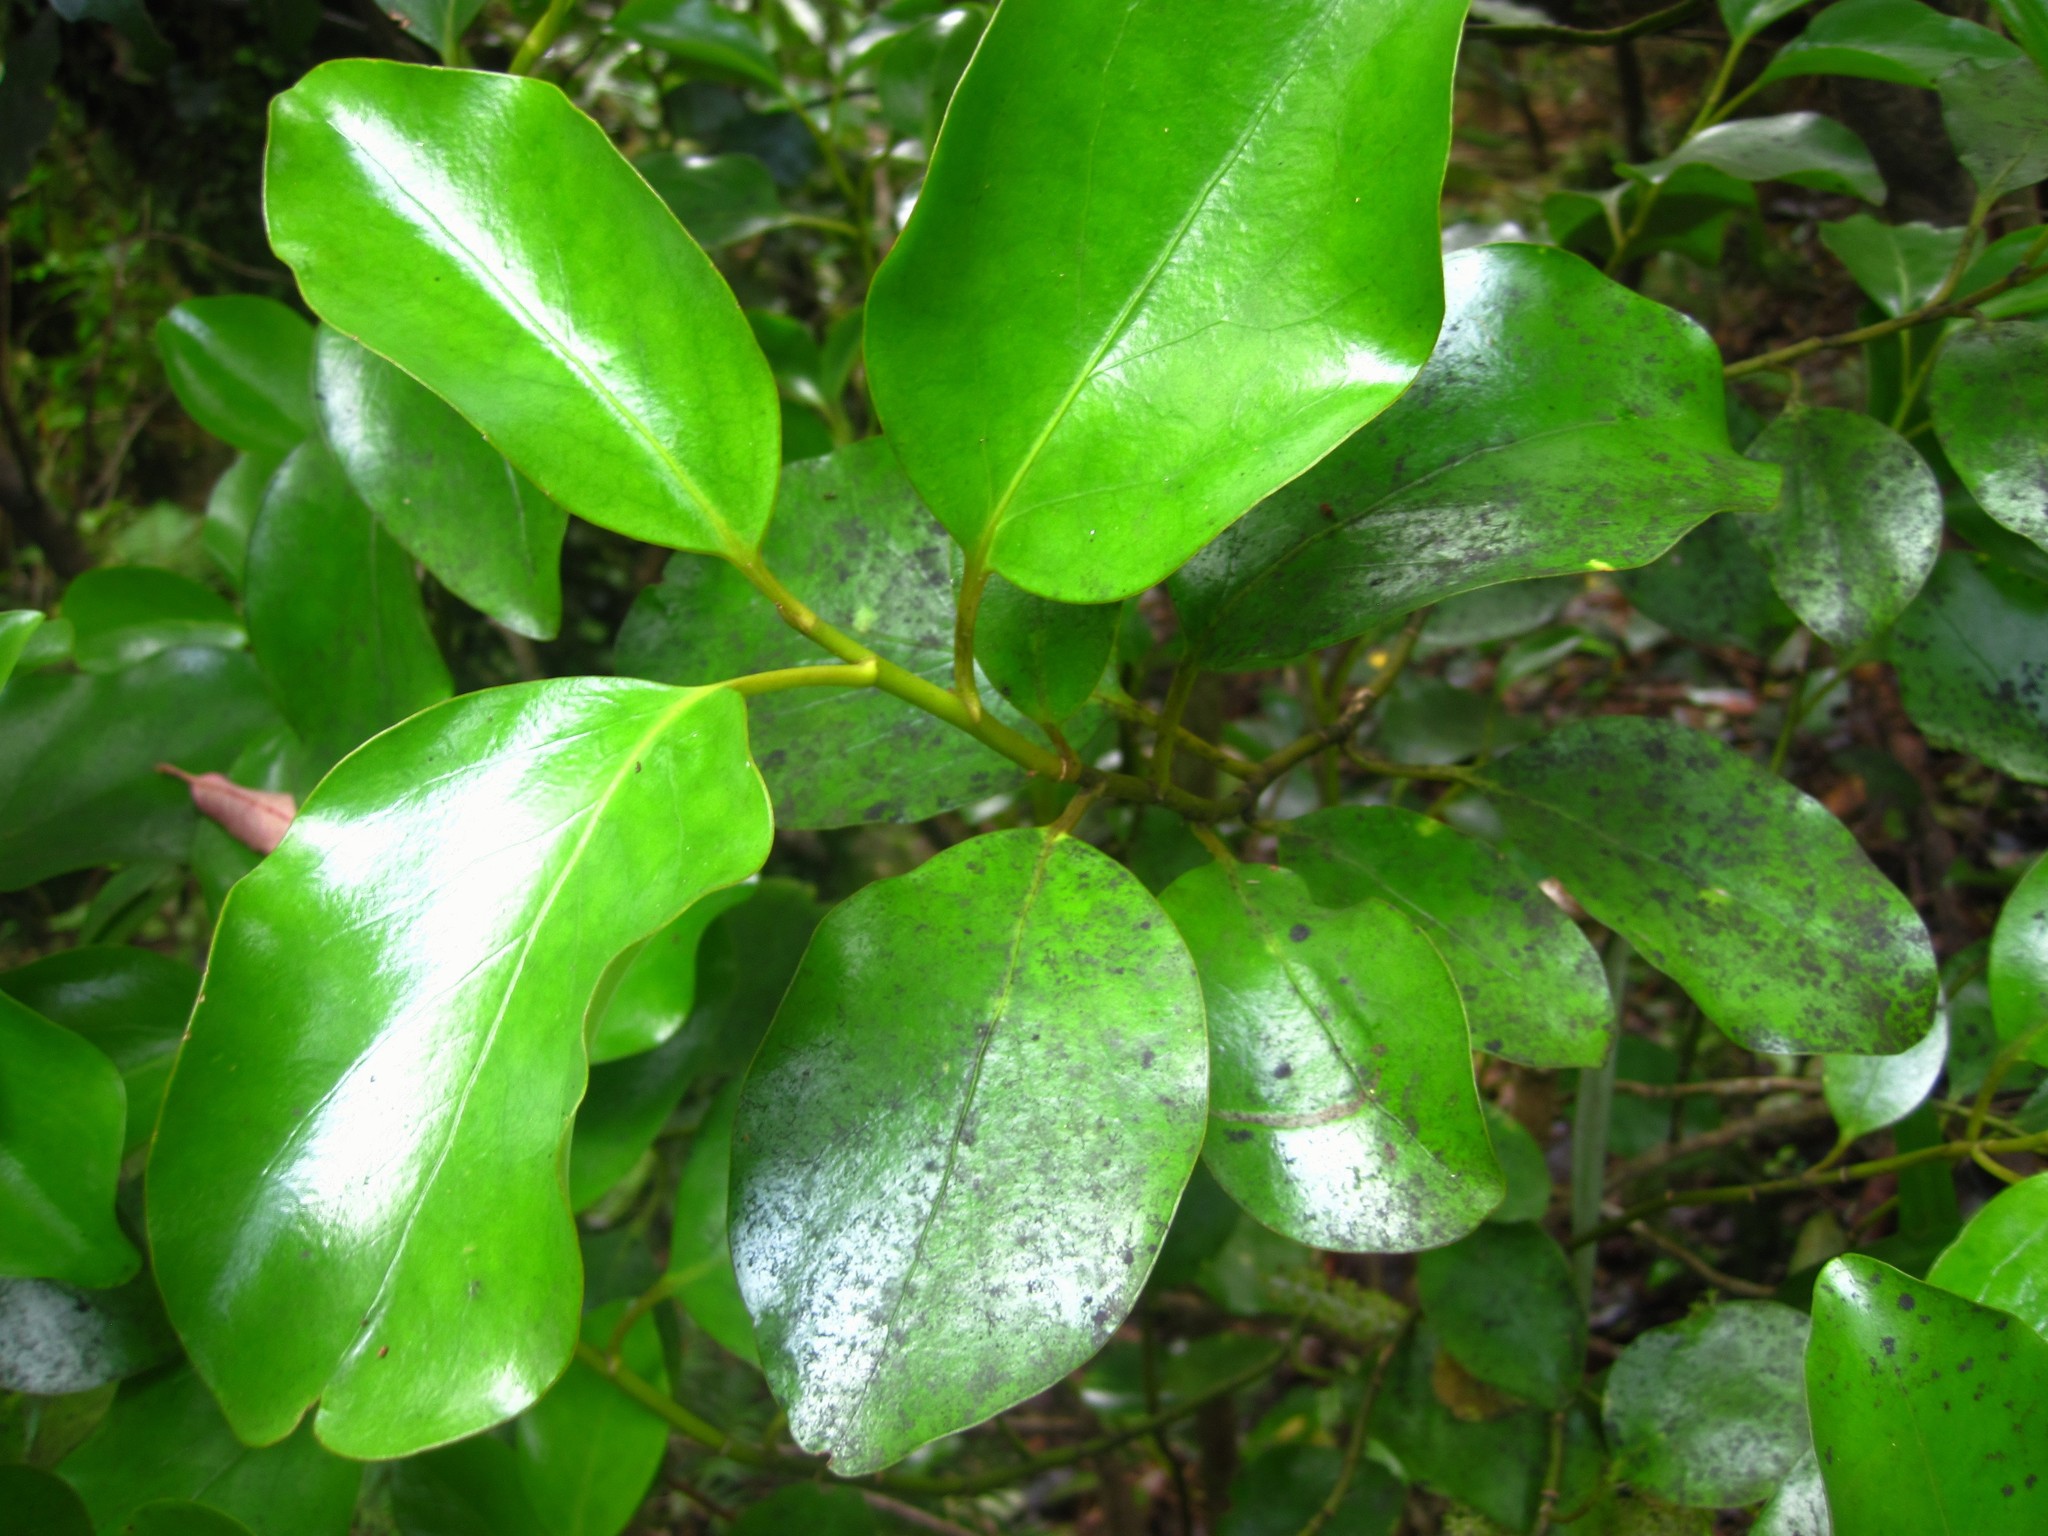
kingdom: Plantae
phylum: Tracheophyta
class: Magnoliopsida
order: Apiales
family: Griseliniaceae
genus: Griselinia
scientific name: Griselinia littoralis
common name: New zealand broadleaf
